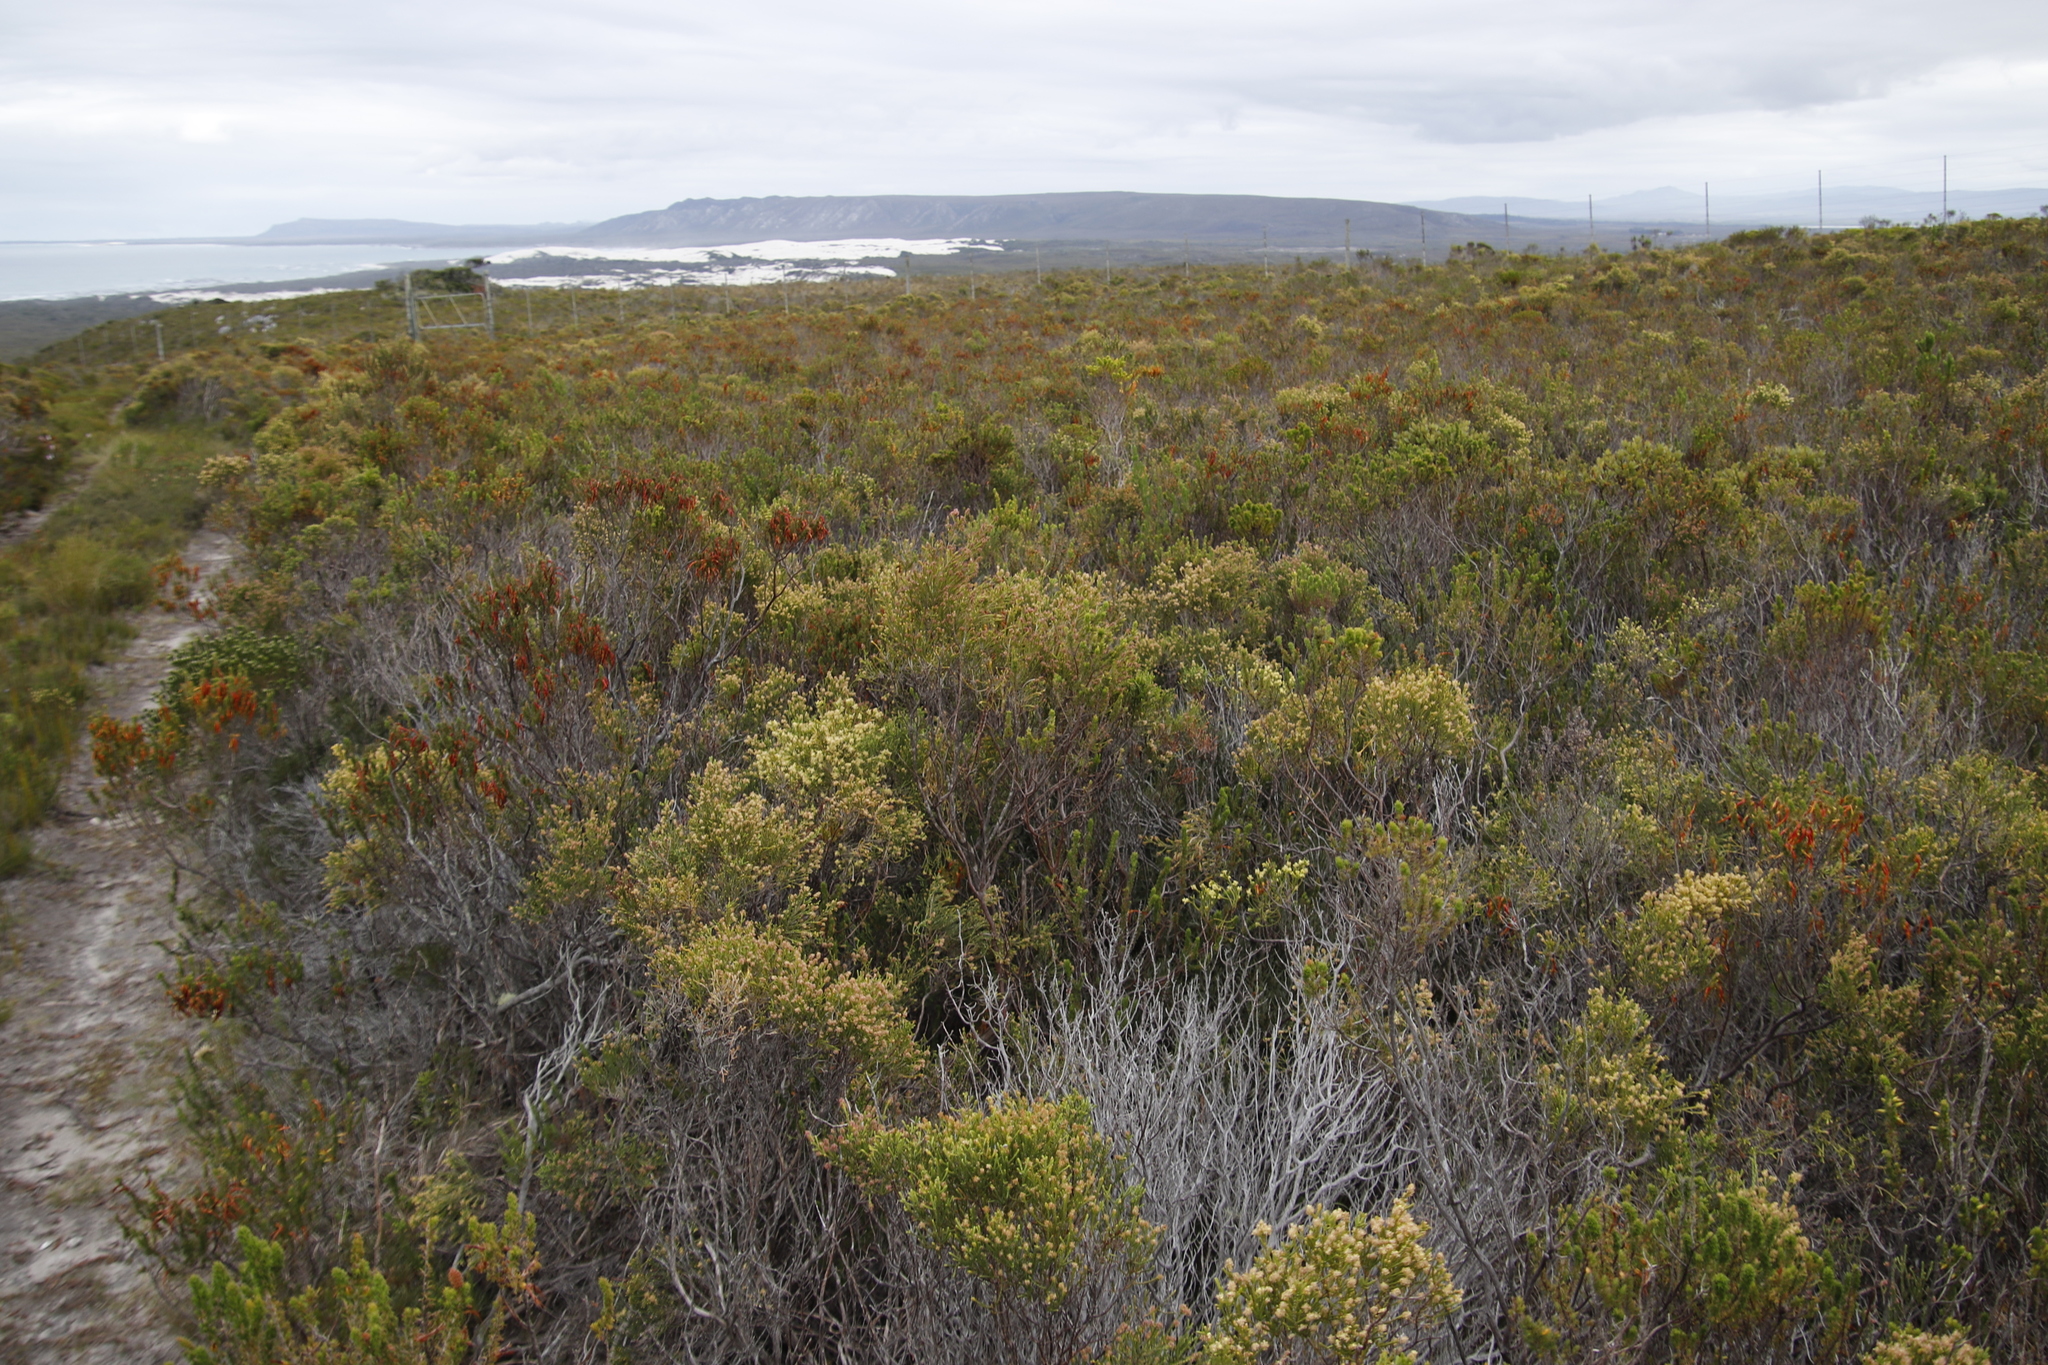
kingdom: Plantae
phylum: Tracheophyta
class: Magnoliopsida
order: Malvales
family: Thymelaeaceae
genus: Passerina
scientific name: Passerina paleacea
